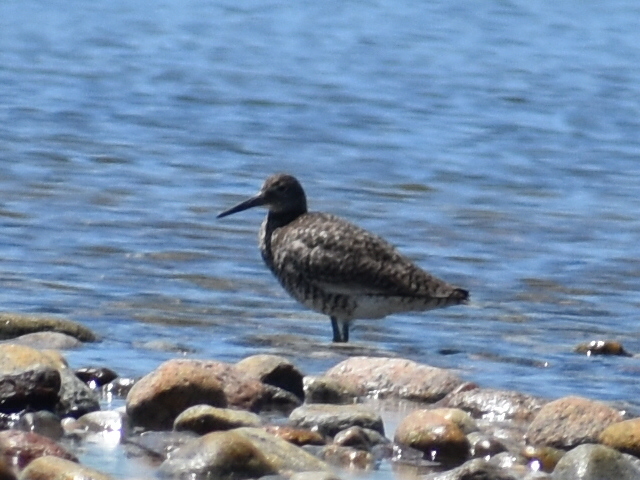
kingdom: Animalia
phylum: Chordata
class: Aves
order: Charadriiformes
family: Scolopacidae
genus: Tringa
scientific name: Tringa semipalmata
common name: Willet
